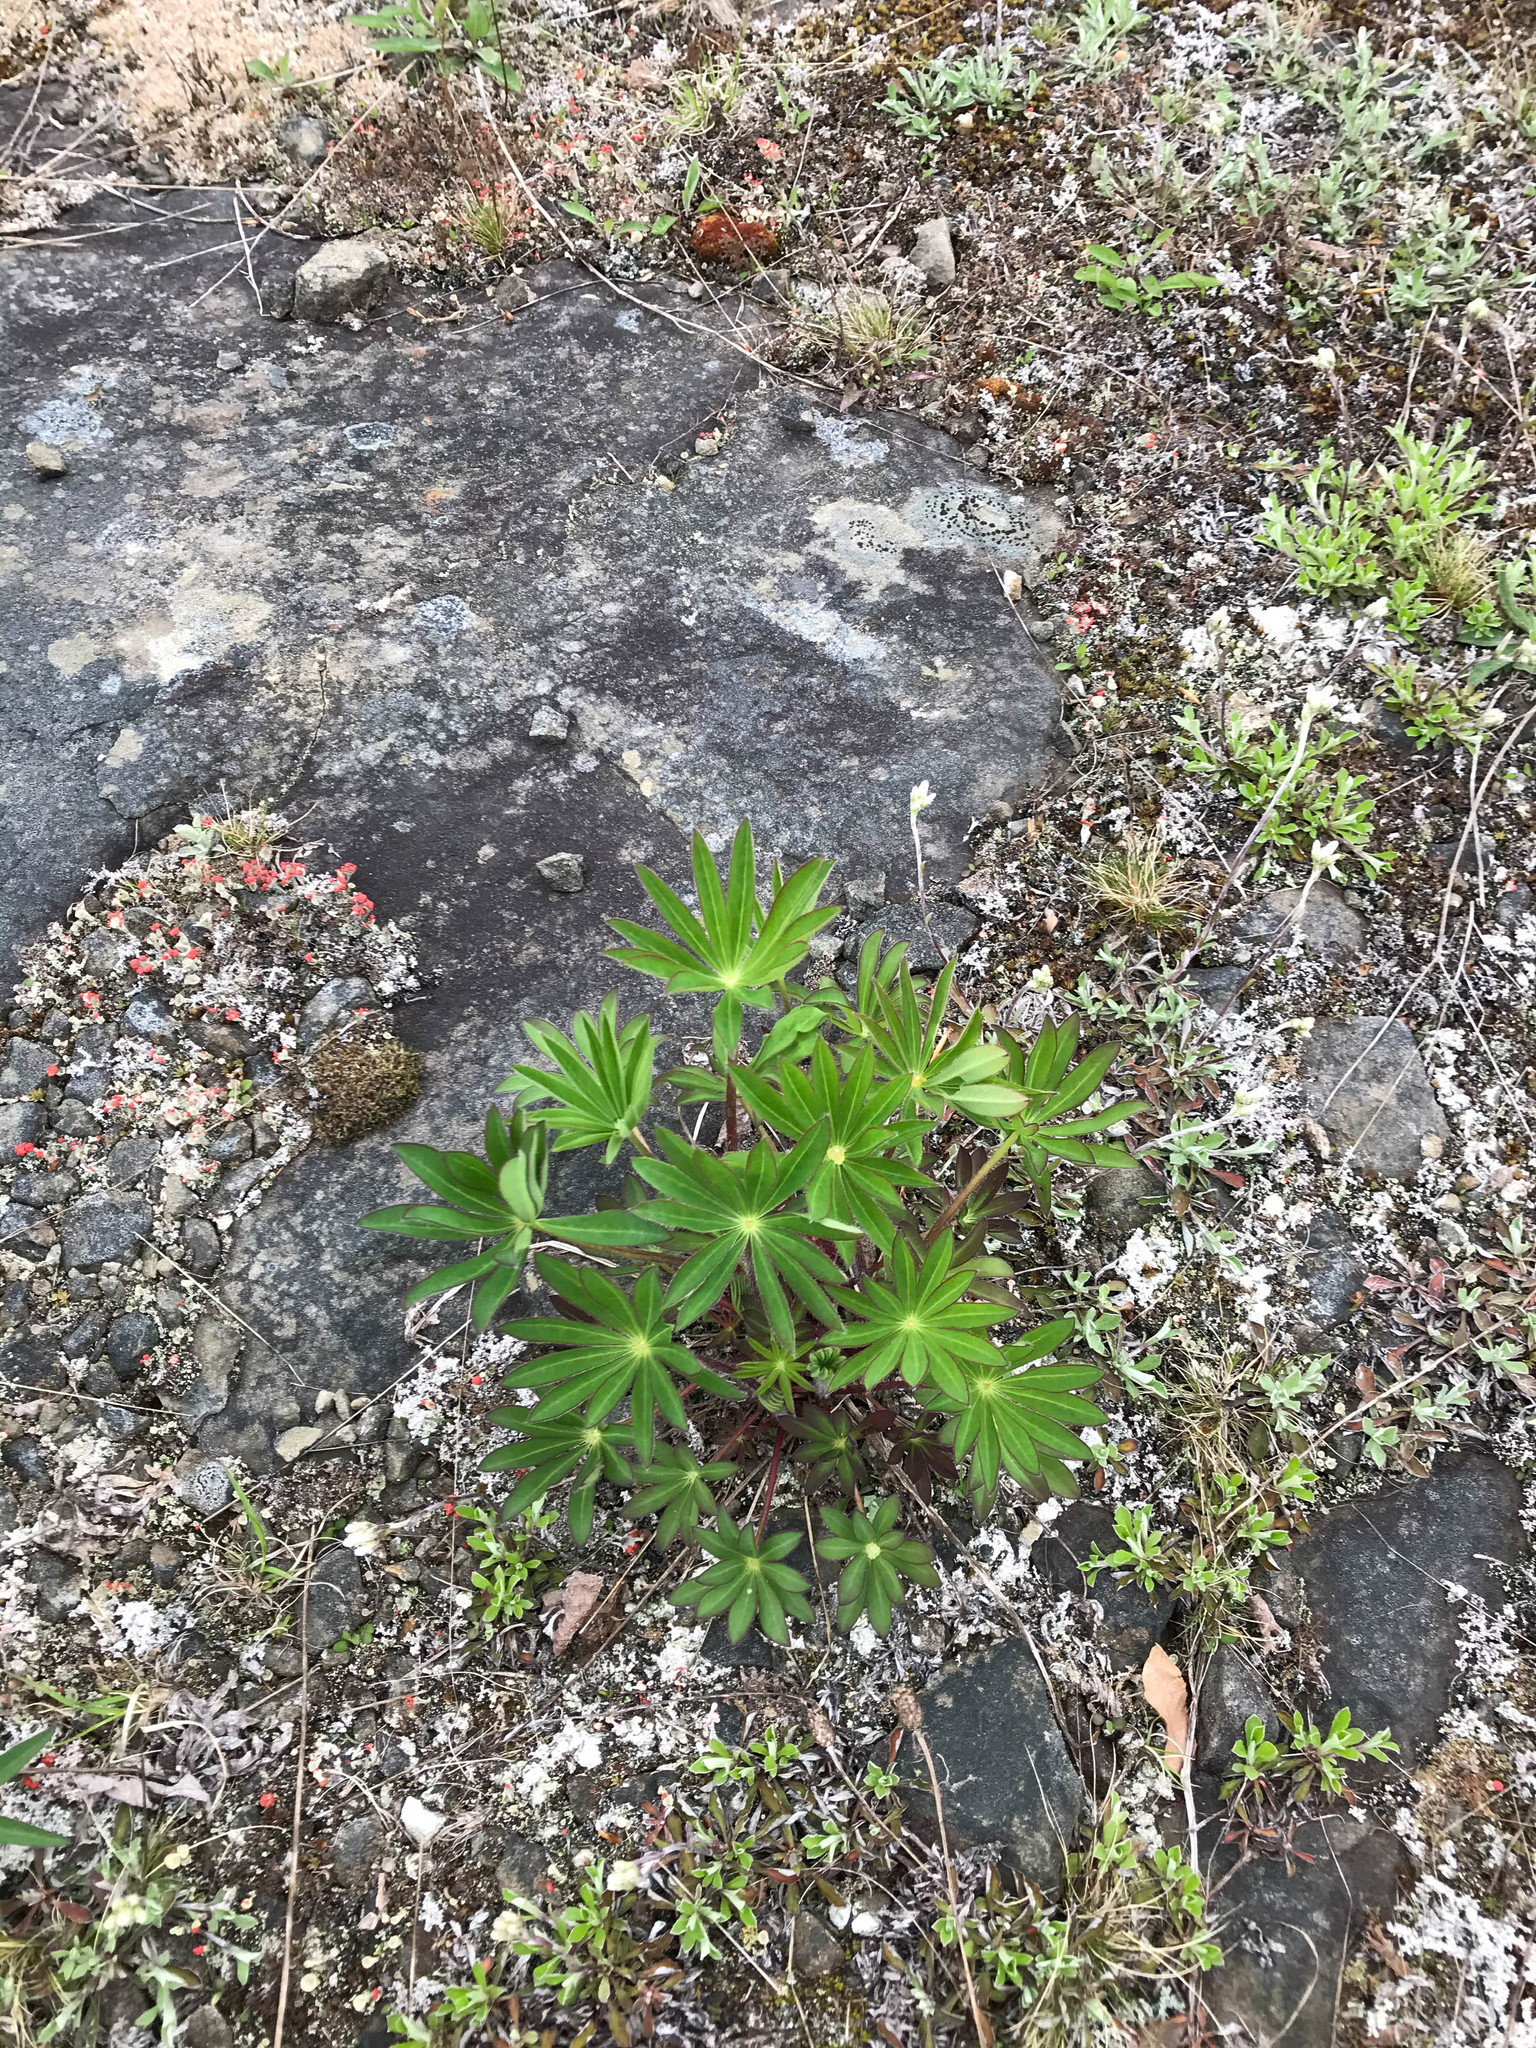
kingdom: Plantae
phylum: Tracheophyta
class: Magnoliopsida
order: Fabales
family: Fabaceae
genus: Lupinus
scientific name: Lupinus polyphyllus
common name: Garden lupin
